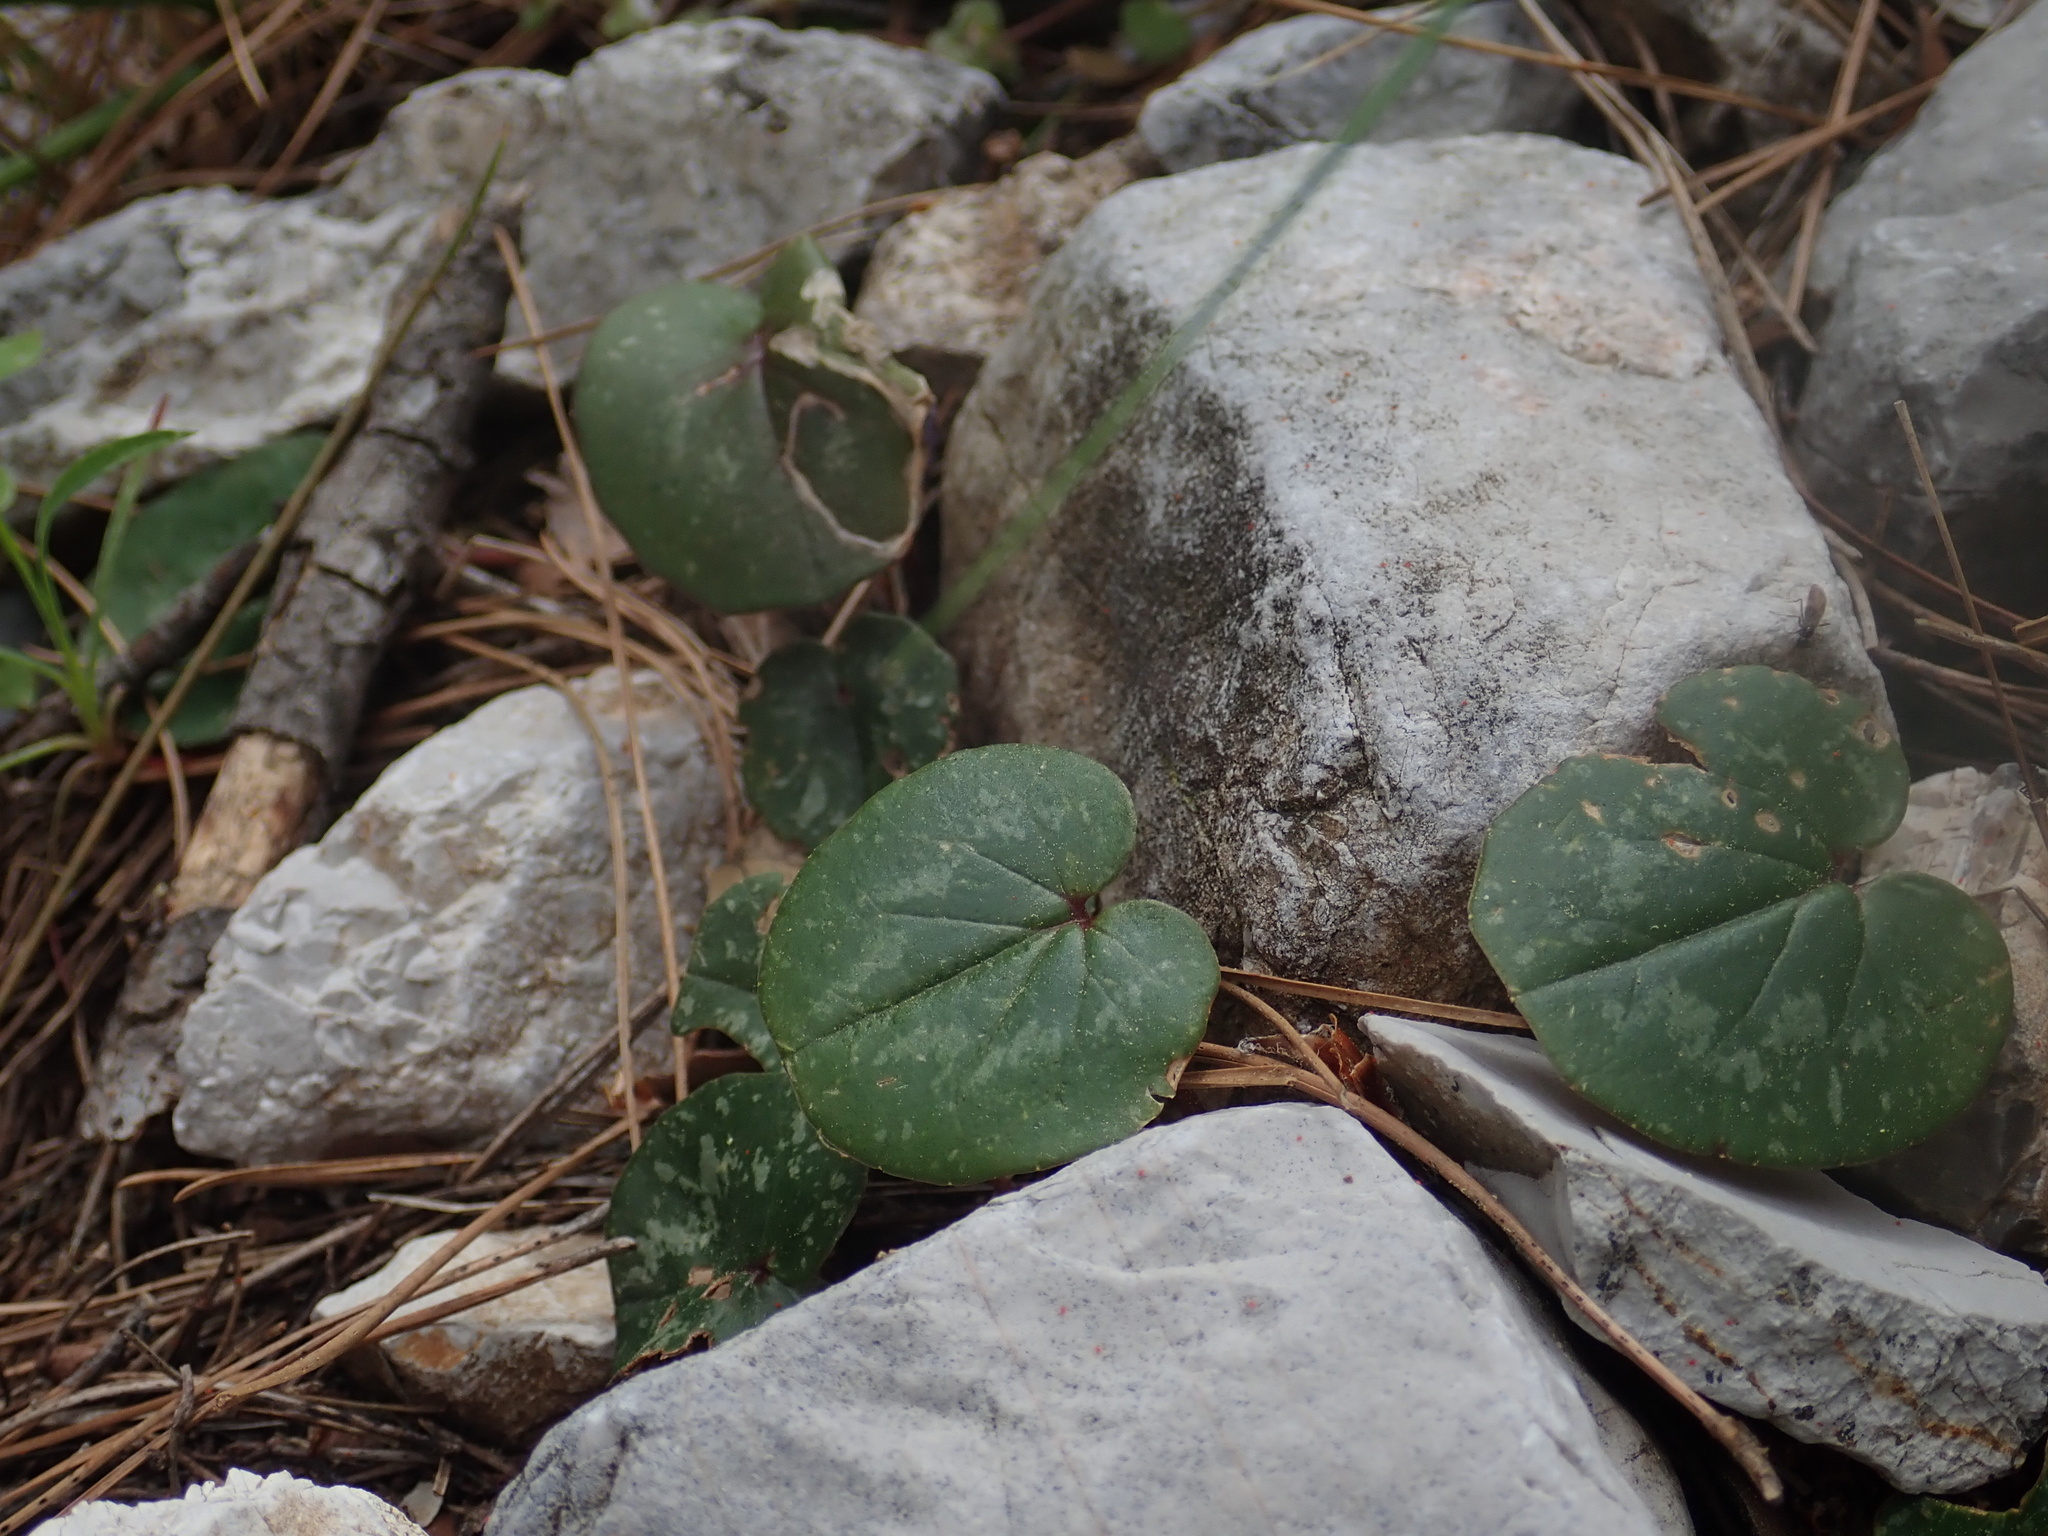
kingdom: Plantae
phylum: Tracheophyta
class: Magnoliopsida
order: Ericales
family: Primulaceae
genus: Cyclamen
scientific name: Cyclamen alpinum
